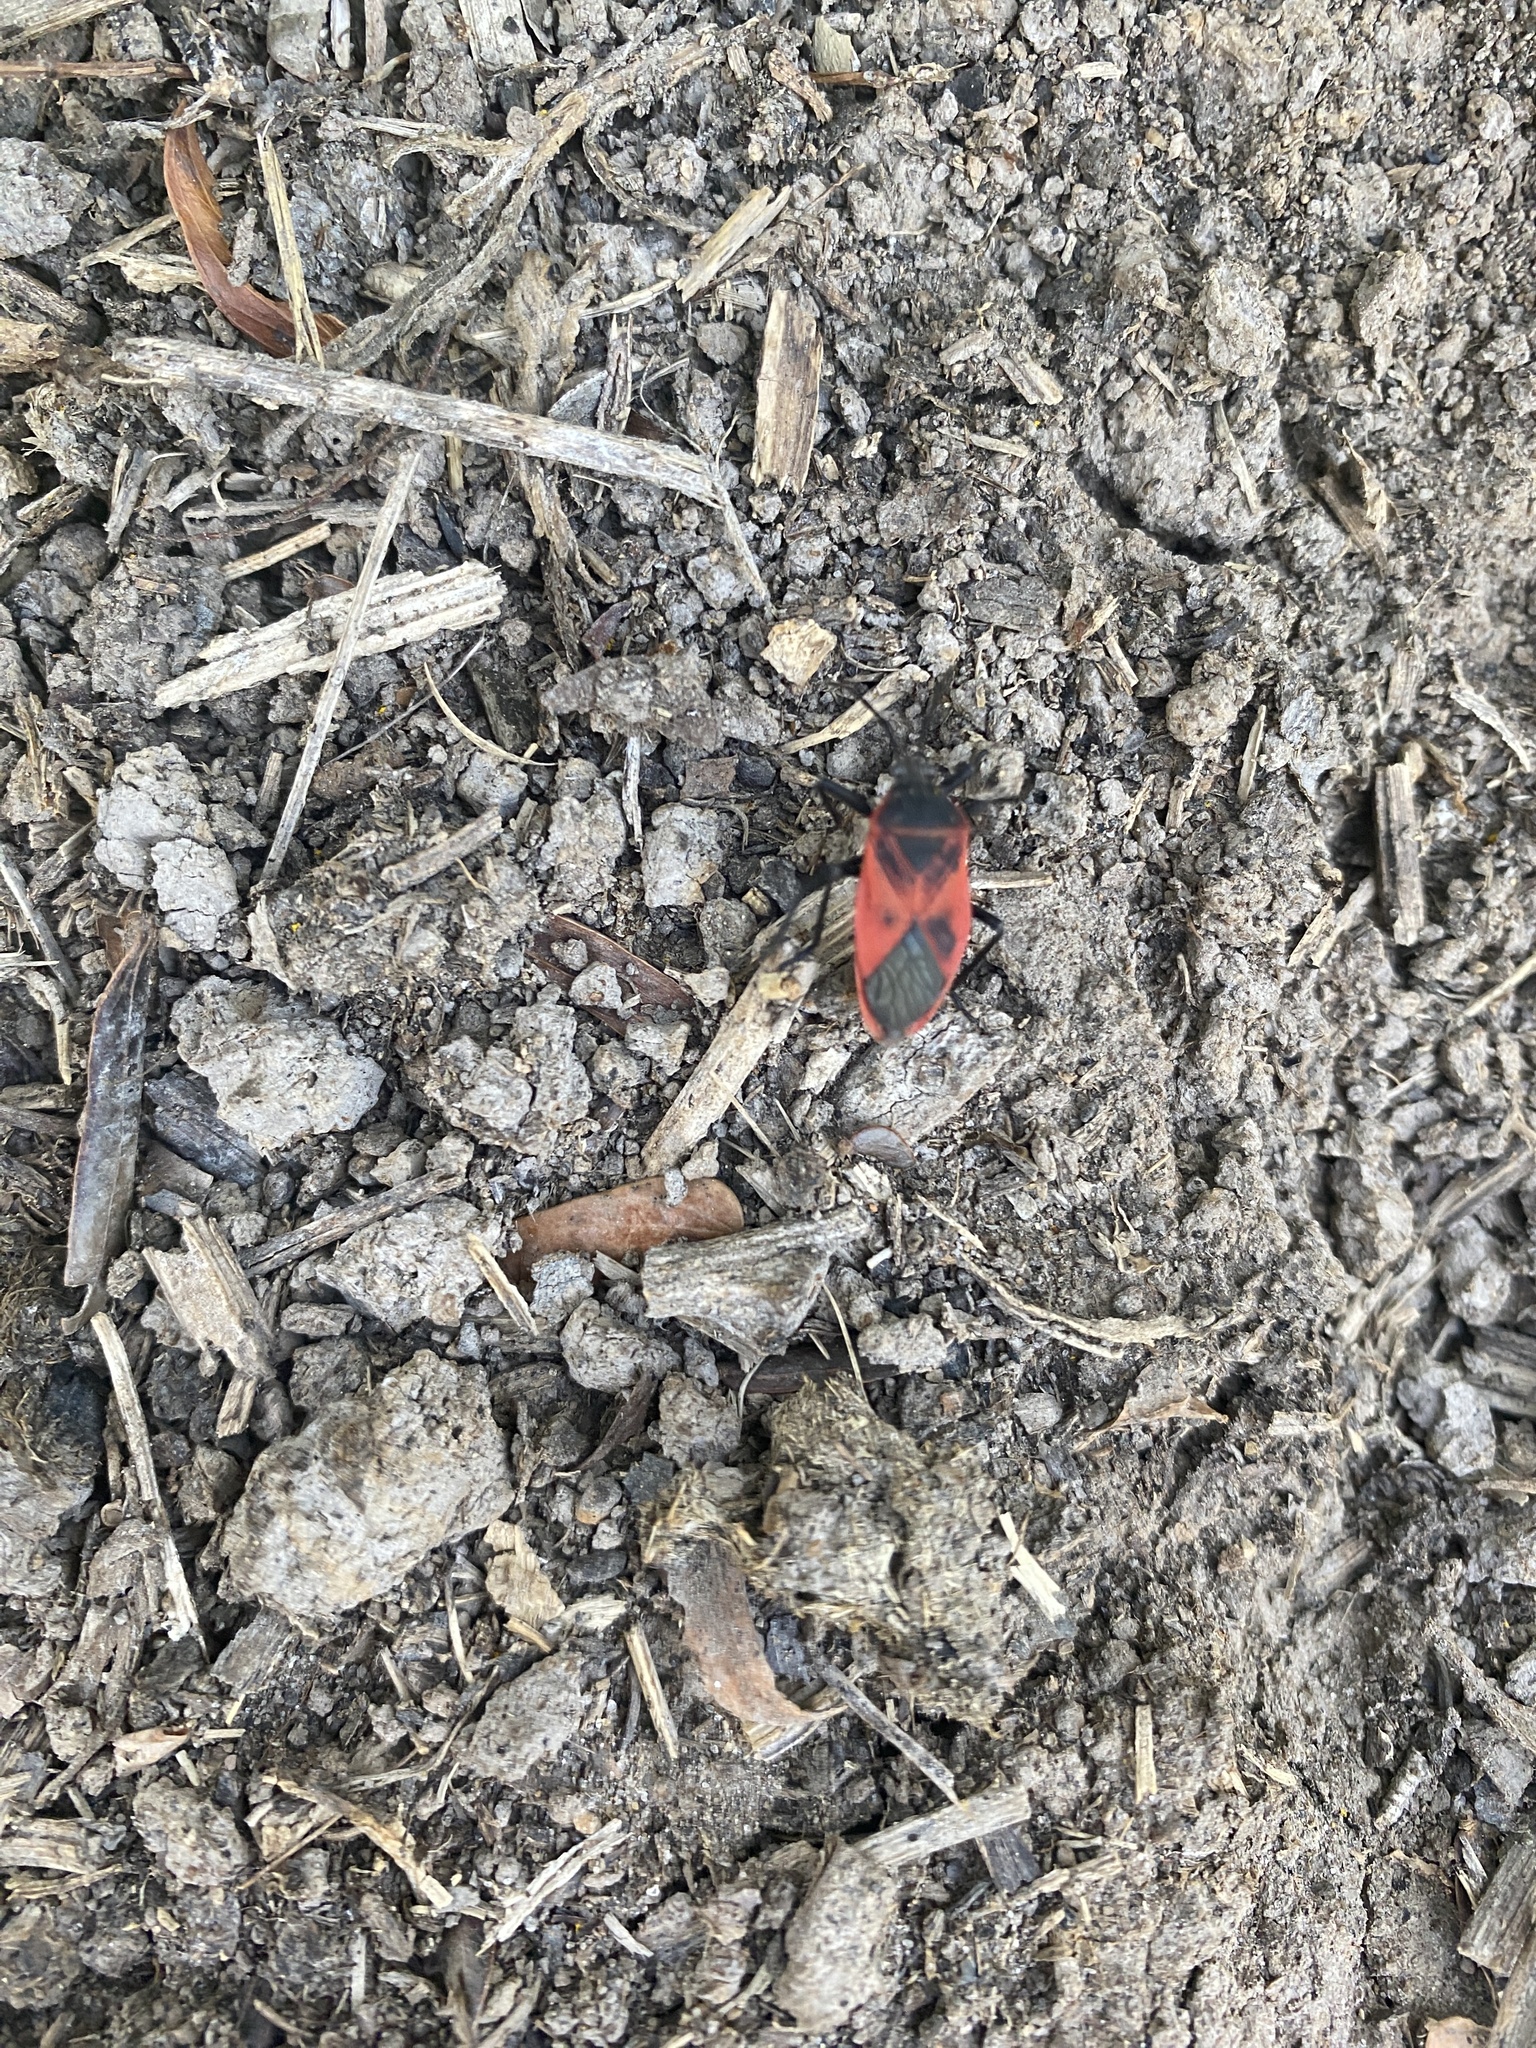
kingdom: Animalia
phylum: Arthropoda
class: Insecta
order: Hemiptera
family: Largidae
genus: Largus
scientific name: Largus rufipennis
